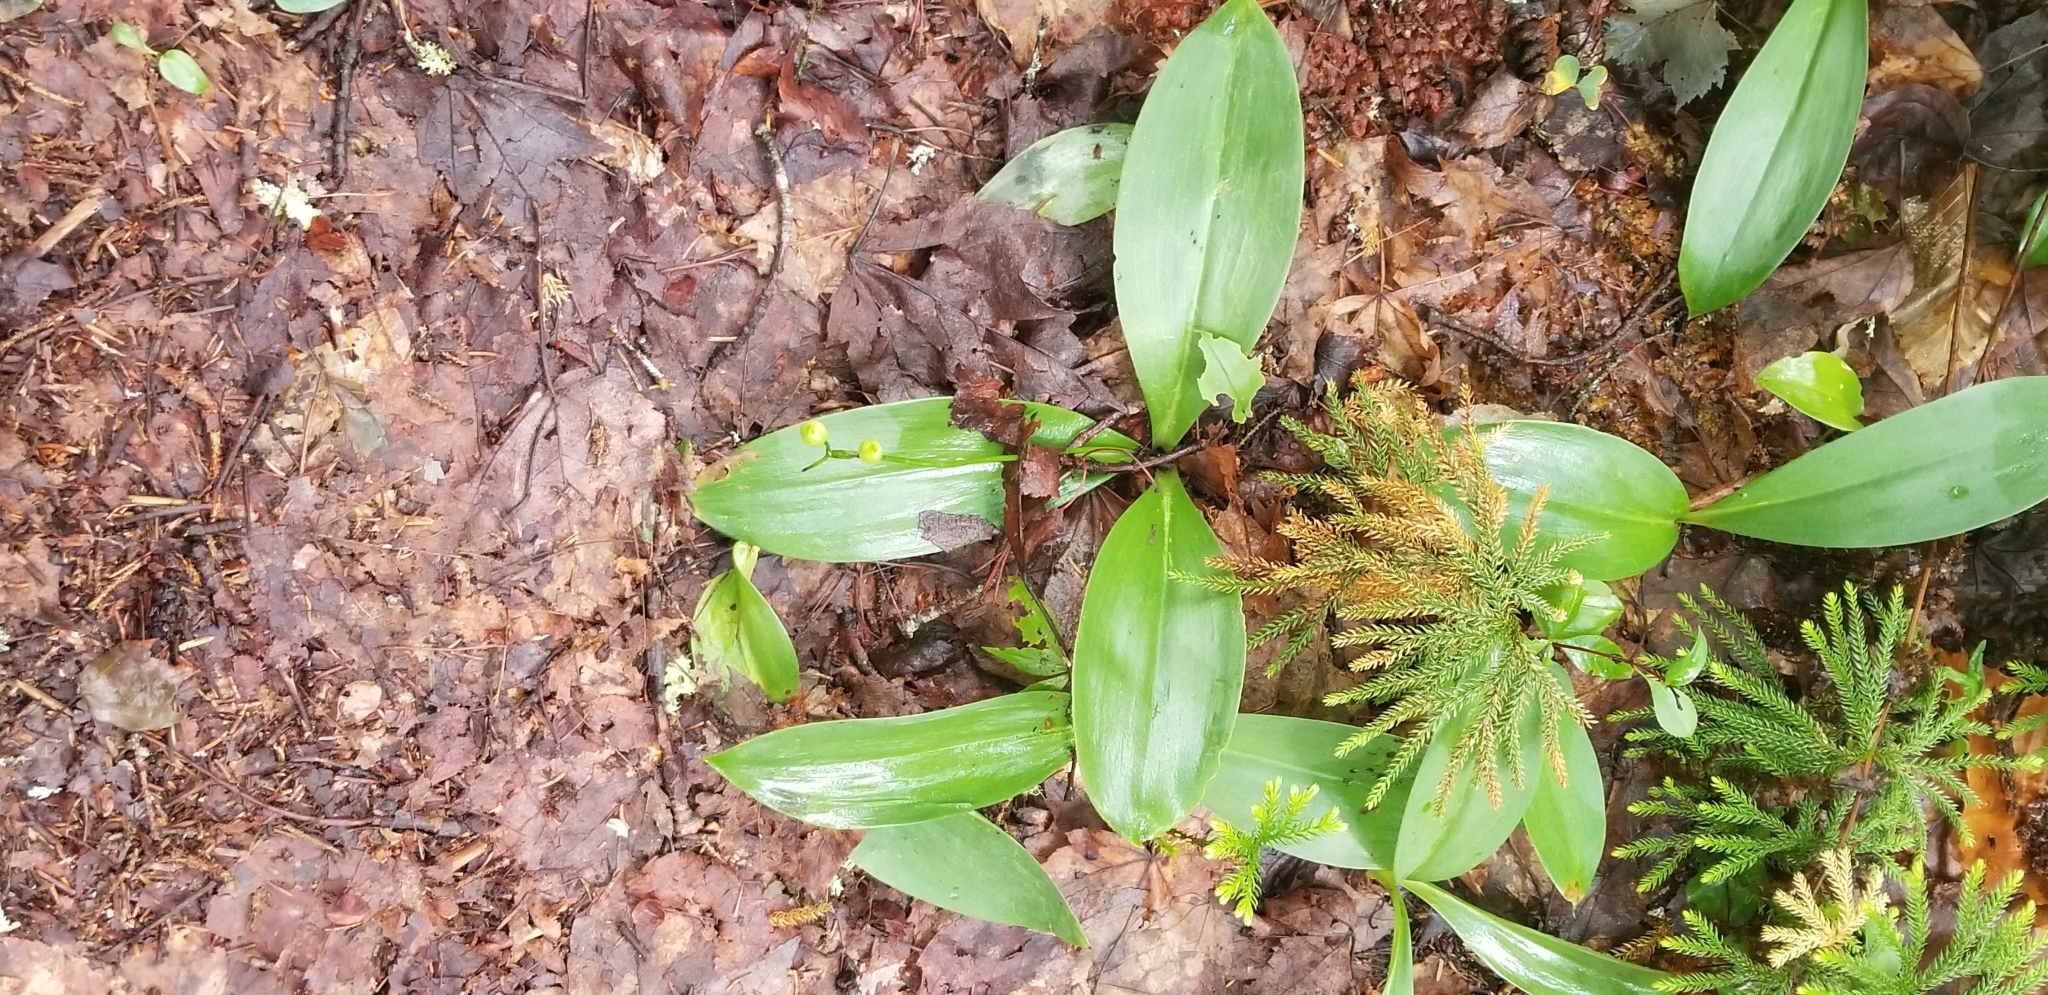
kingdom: Plantae
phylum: Tracheophyta
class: Liliopsida
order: Liliales
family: Liliaceae
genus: Clintonia
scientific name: Clintonia borealis
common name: Yellow clintonia
